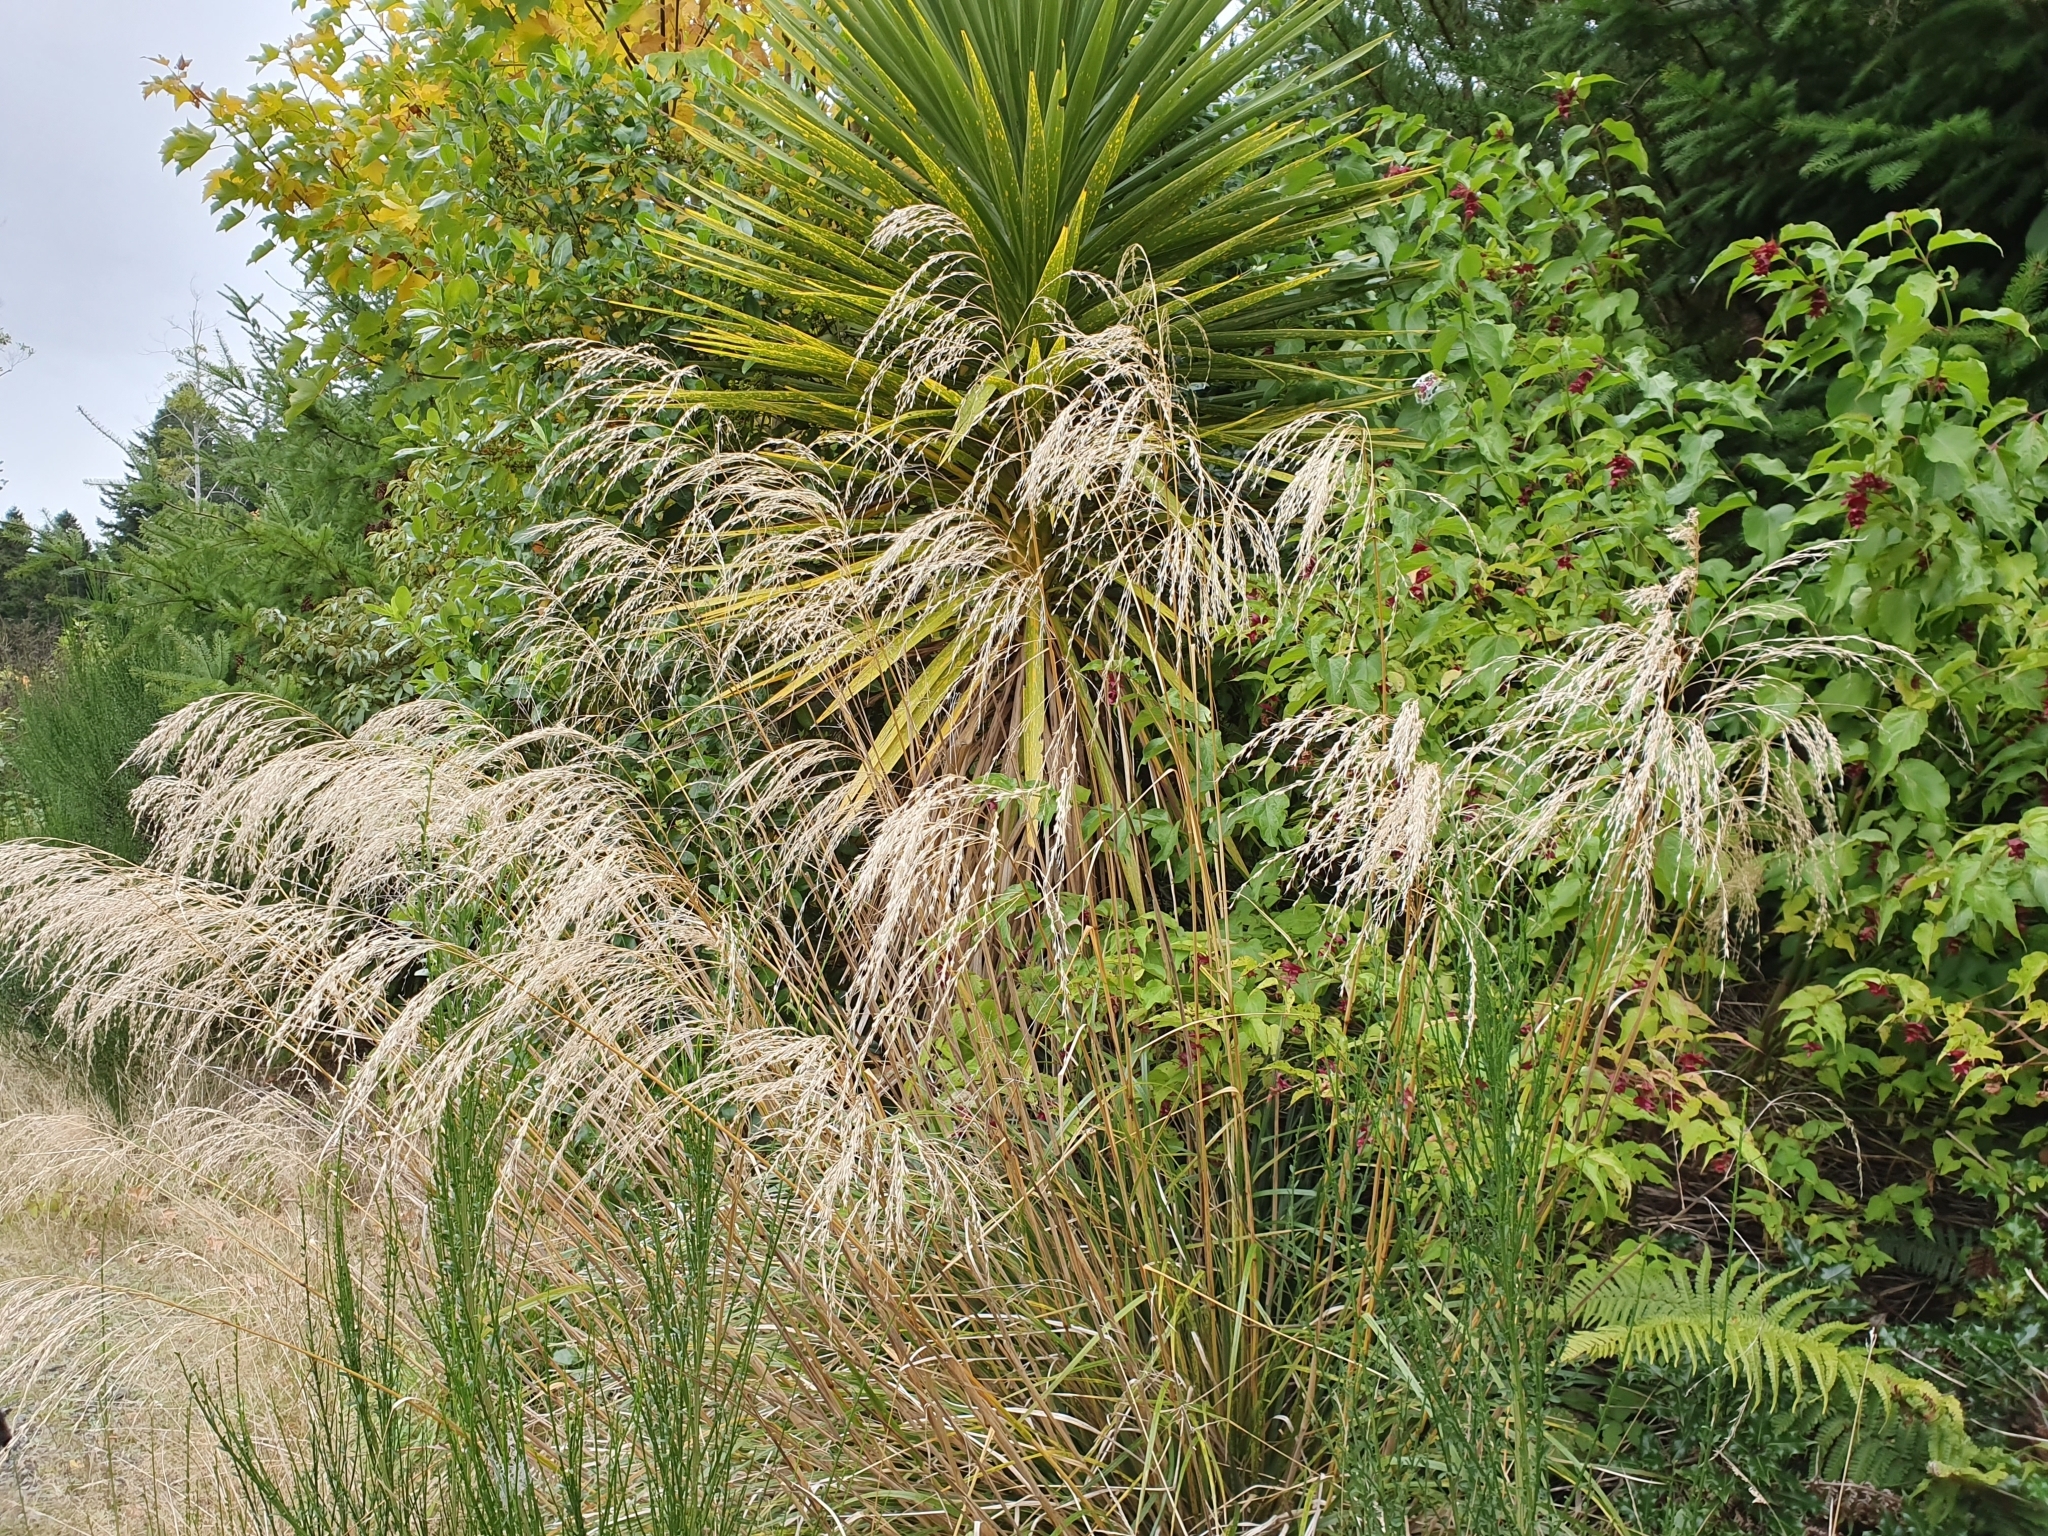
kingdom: Plantae
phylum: Tracheophyta
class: Liliopsida
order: Poales
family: Poaceae
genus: Chionochloa
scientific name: Chionochloa conspicua
